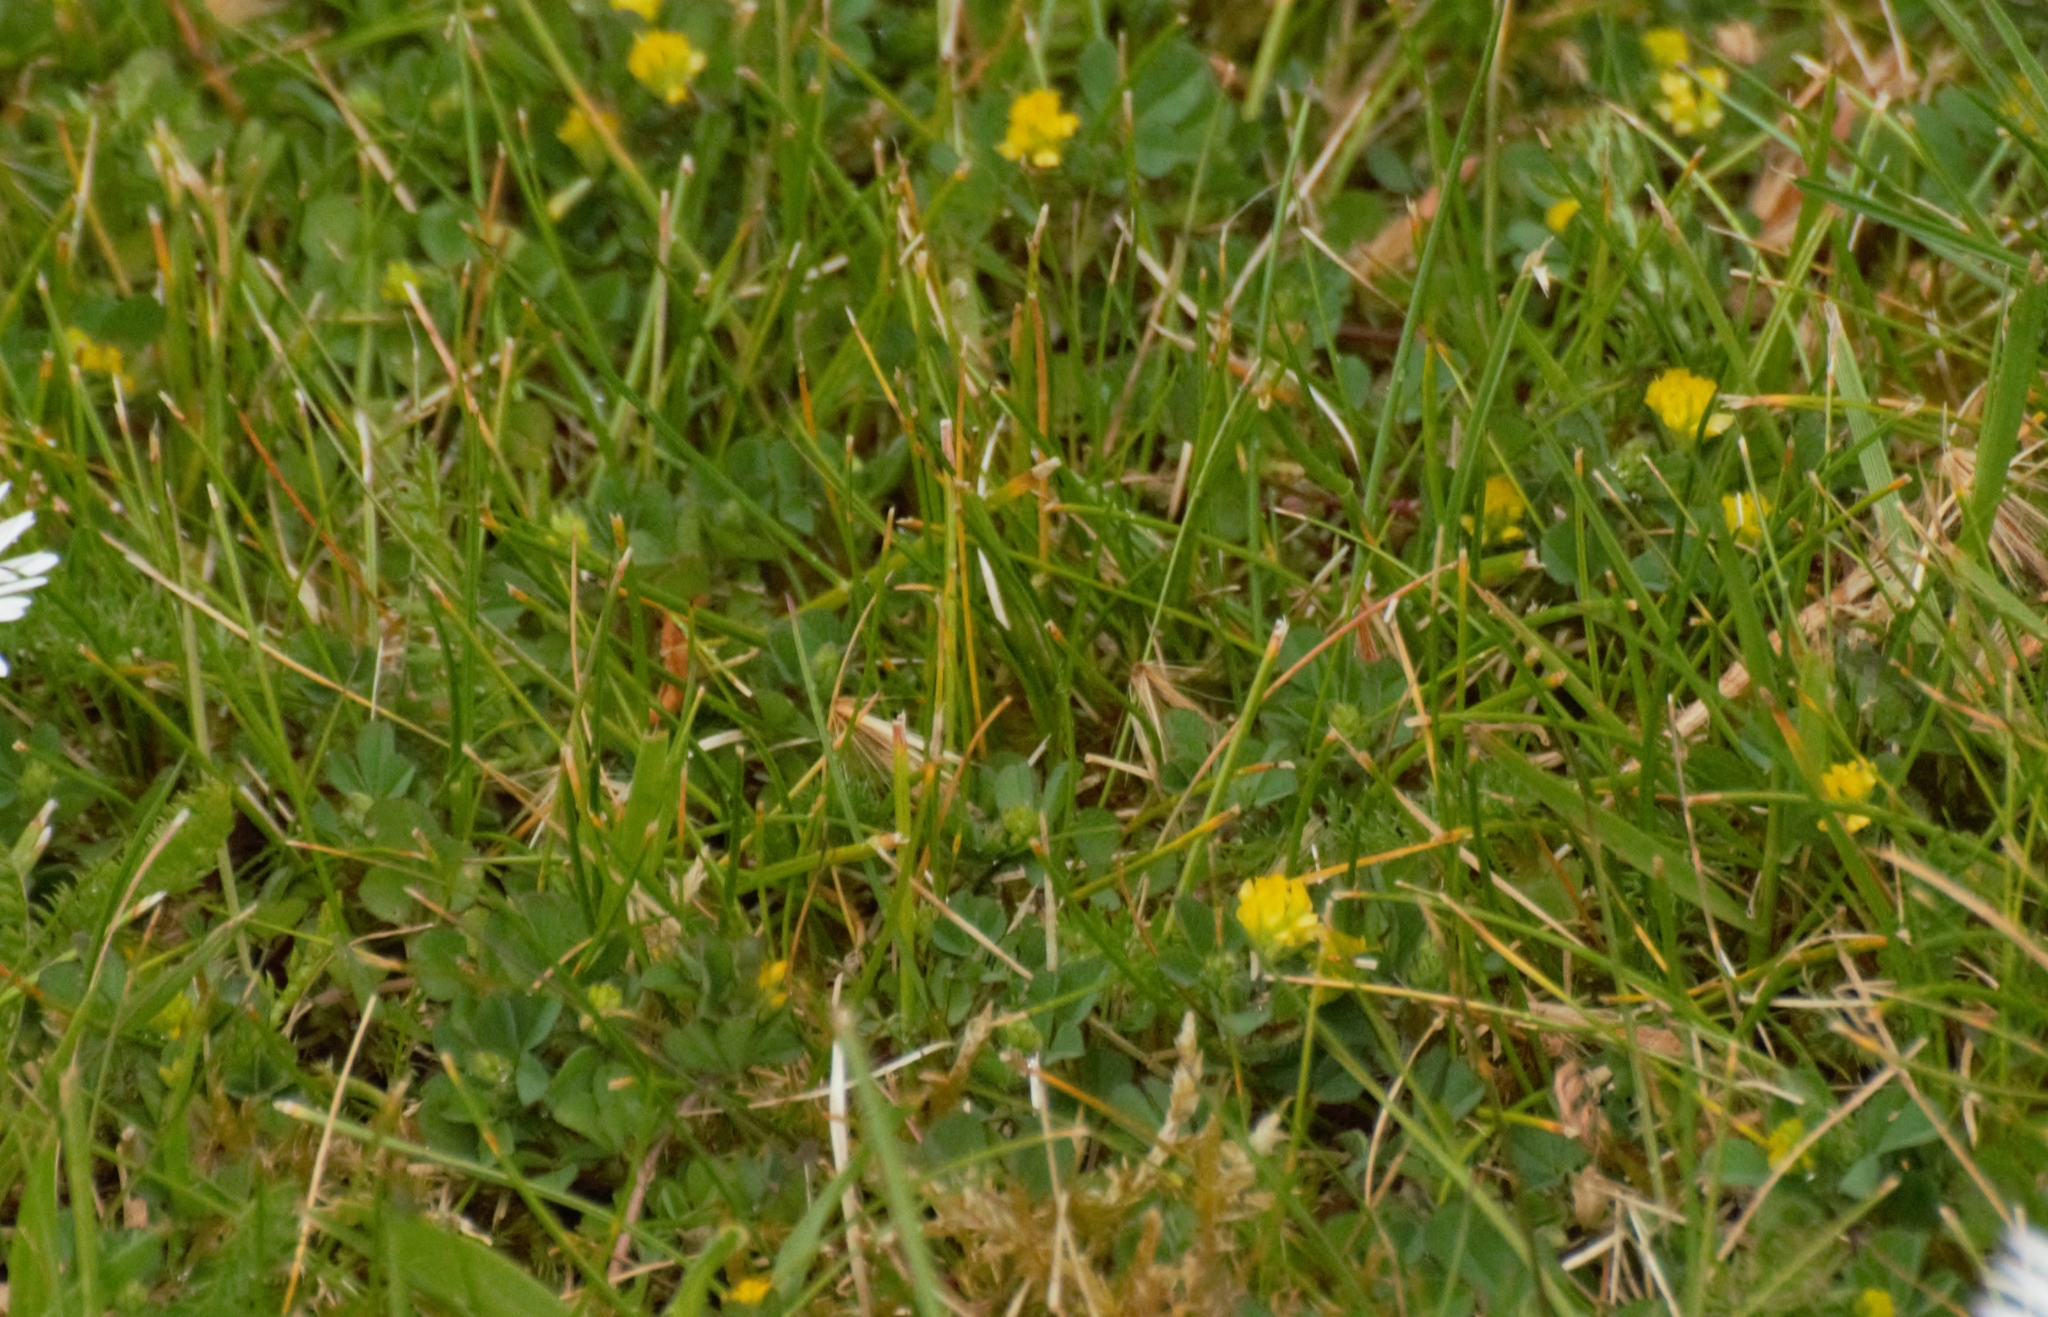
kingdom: Plantae
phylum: Tracheophyta
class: Magnoliopsida
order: Fabales
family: Fabaceae
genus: Trifolium
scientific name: Trifolium dubium
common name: Suckling clover
